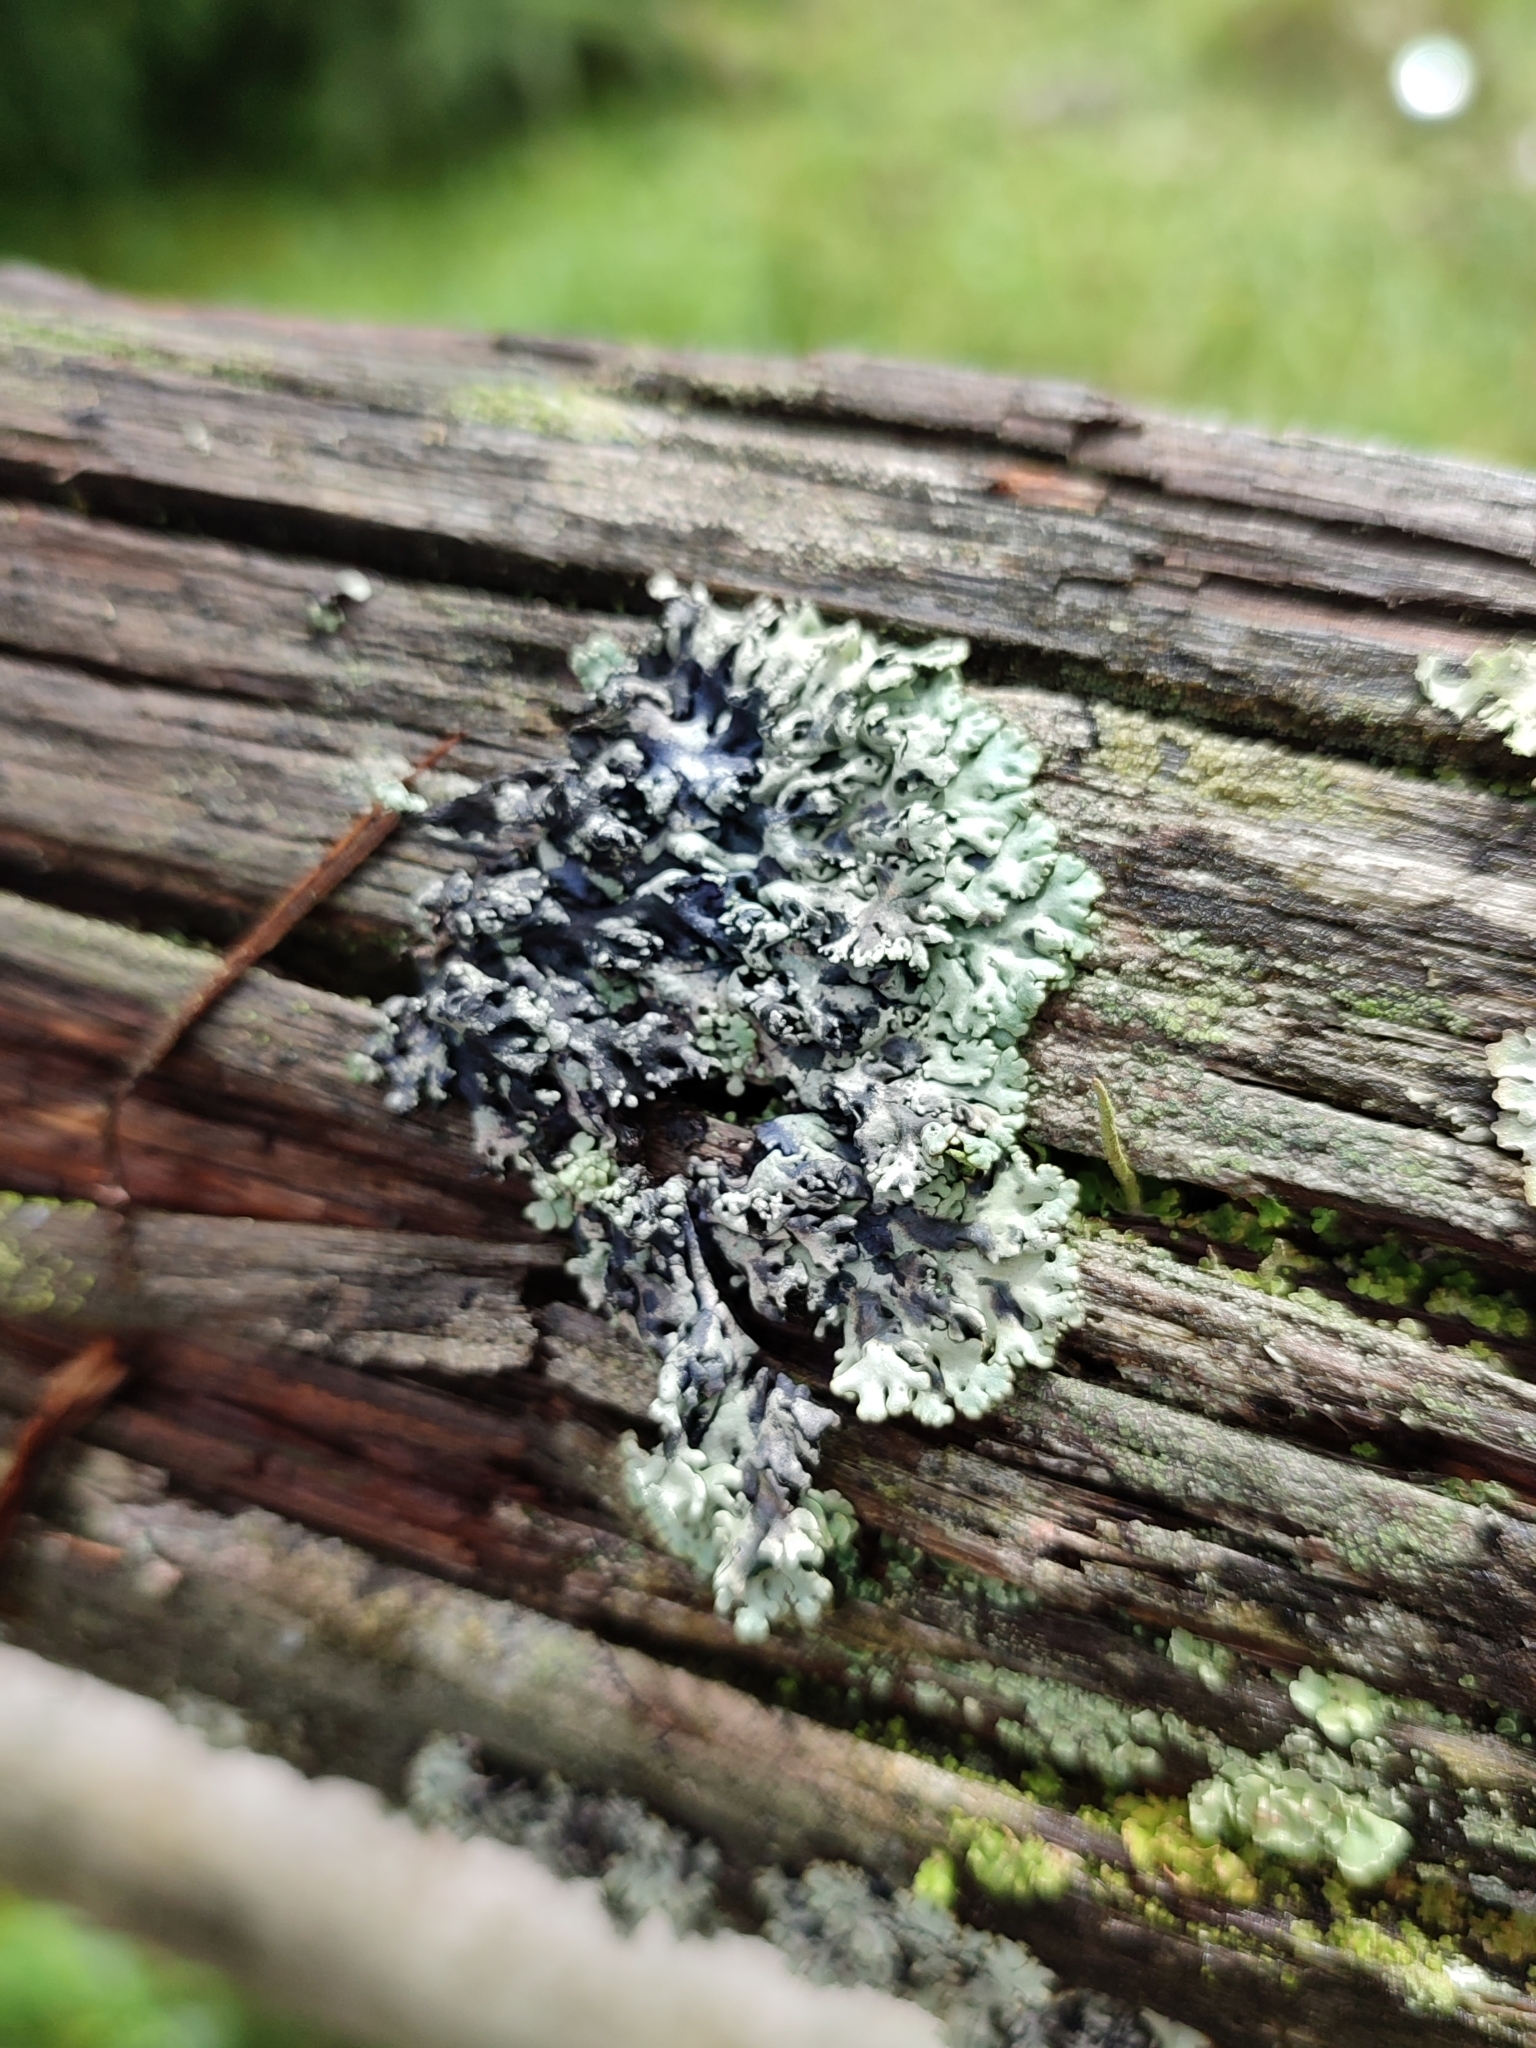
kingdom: Fungi
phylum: Ascomycota
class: Lecanoromycetes
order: Lecanorales
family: Parmeliaceae
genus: Hypogymnia
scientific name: Hypogymnia physodes
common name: Dark crottle
